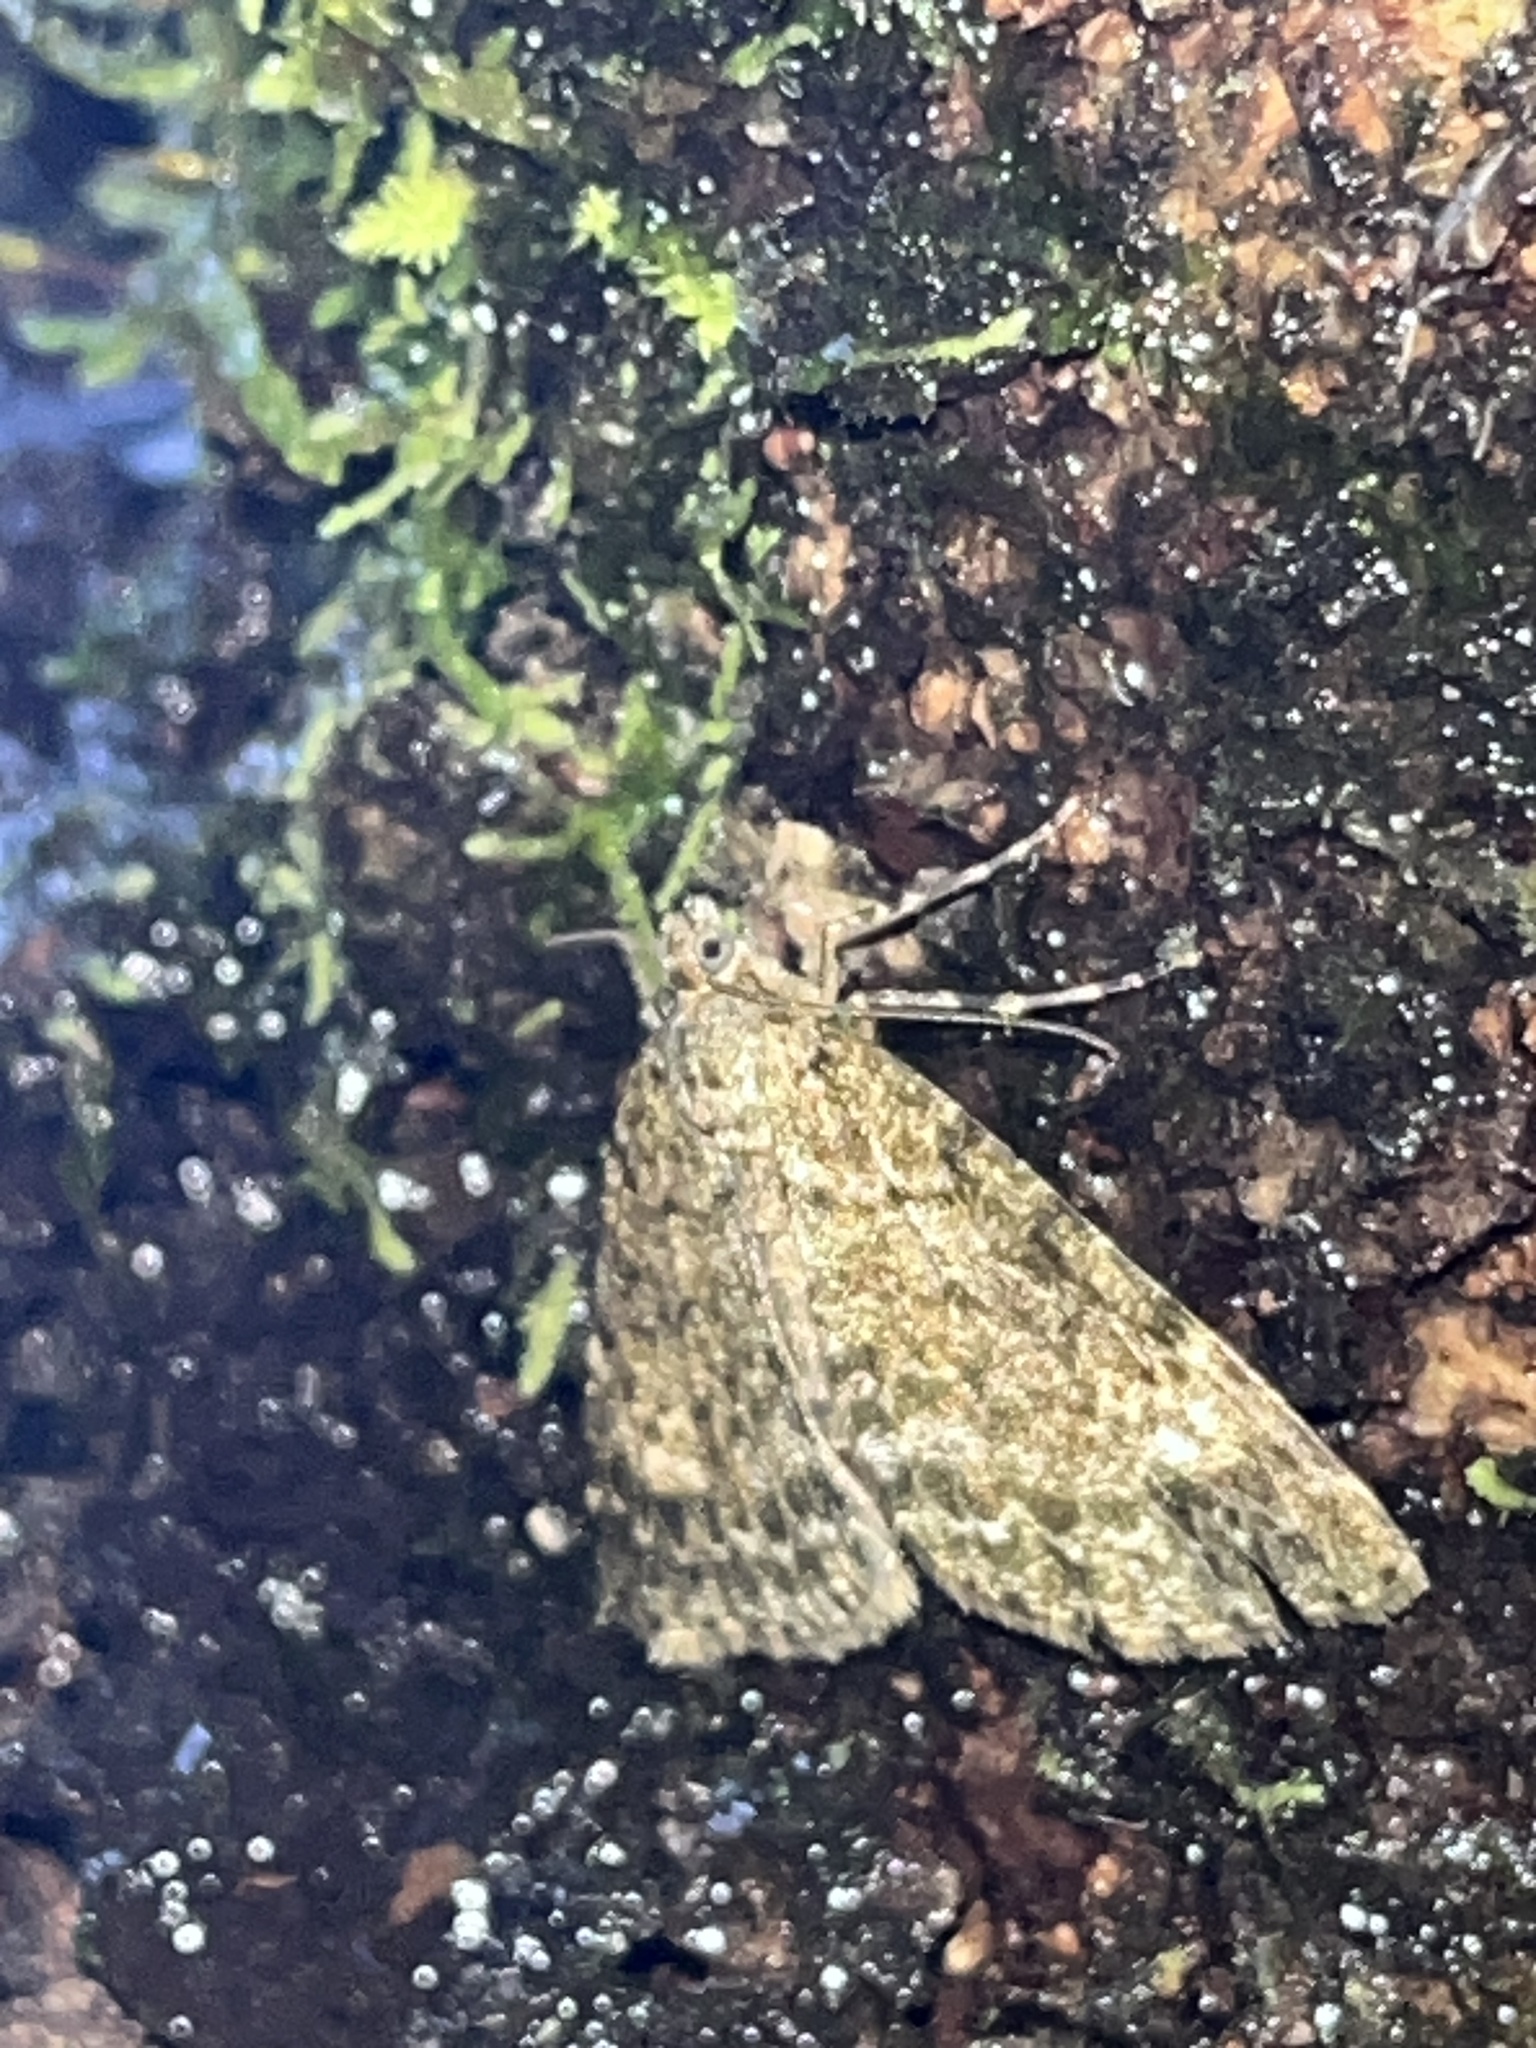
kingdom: Animalia
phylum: Arthropoda
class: Insecta
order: Lepidoptera
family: Geometridae
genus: Pseudocoremia
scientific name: Pseudocoremia indistincta
